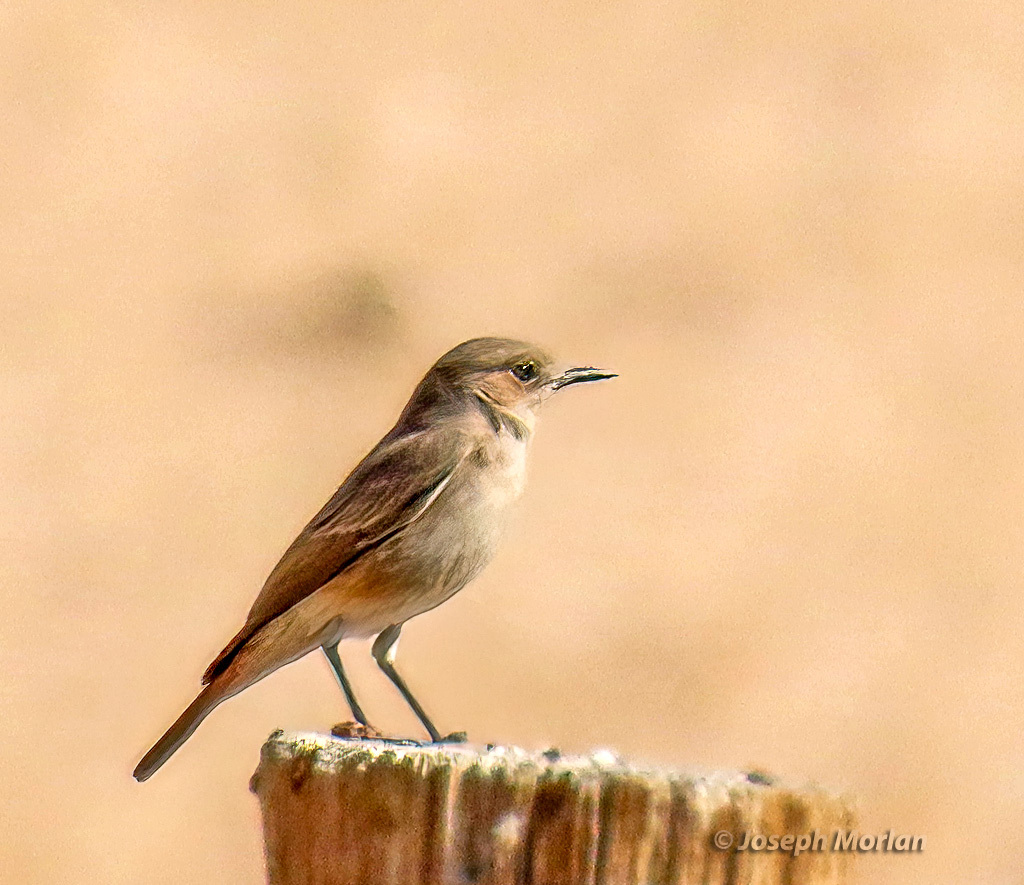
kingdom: Animalia
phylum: Chordata
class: Aves
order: Passeriformes
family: Muscicapidae
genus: Oenanthe
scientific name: Oenanthe familiaris
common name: Familiar chat
